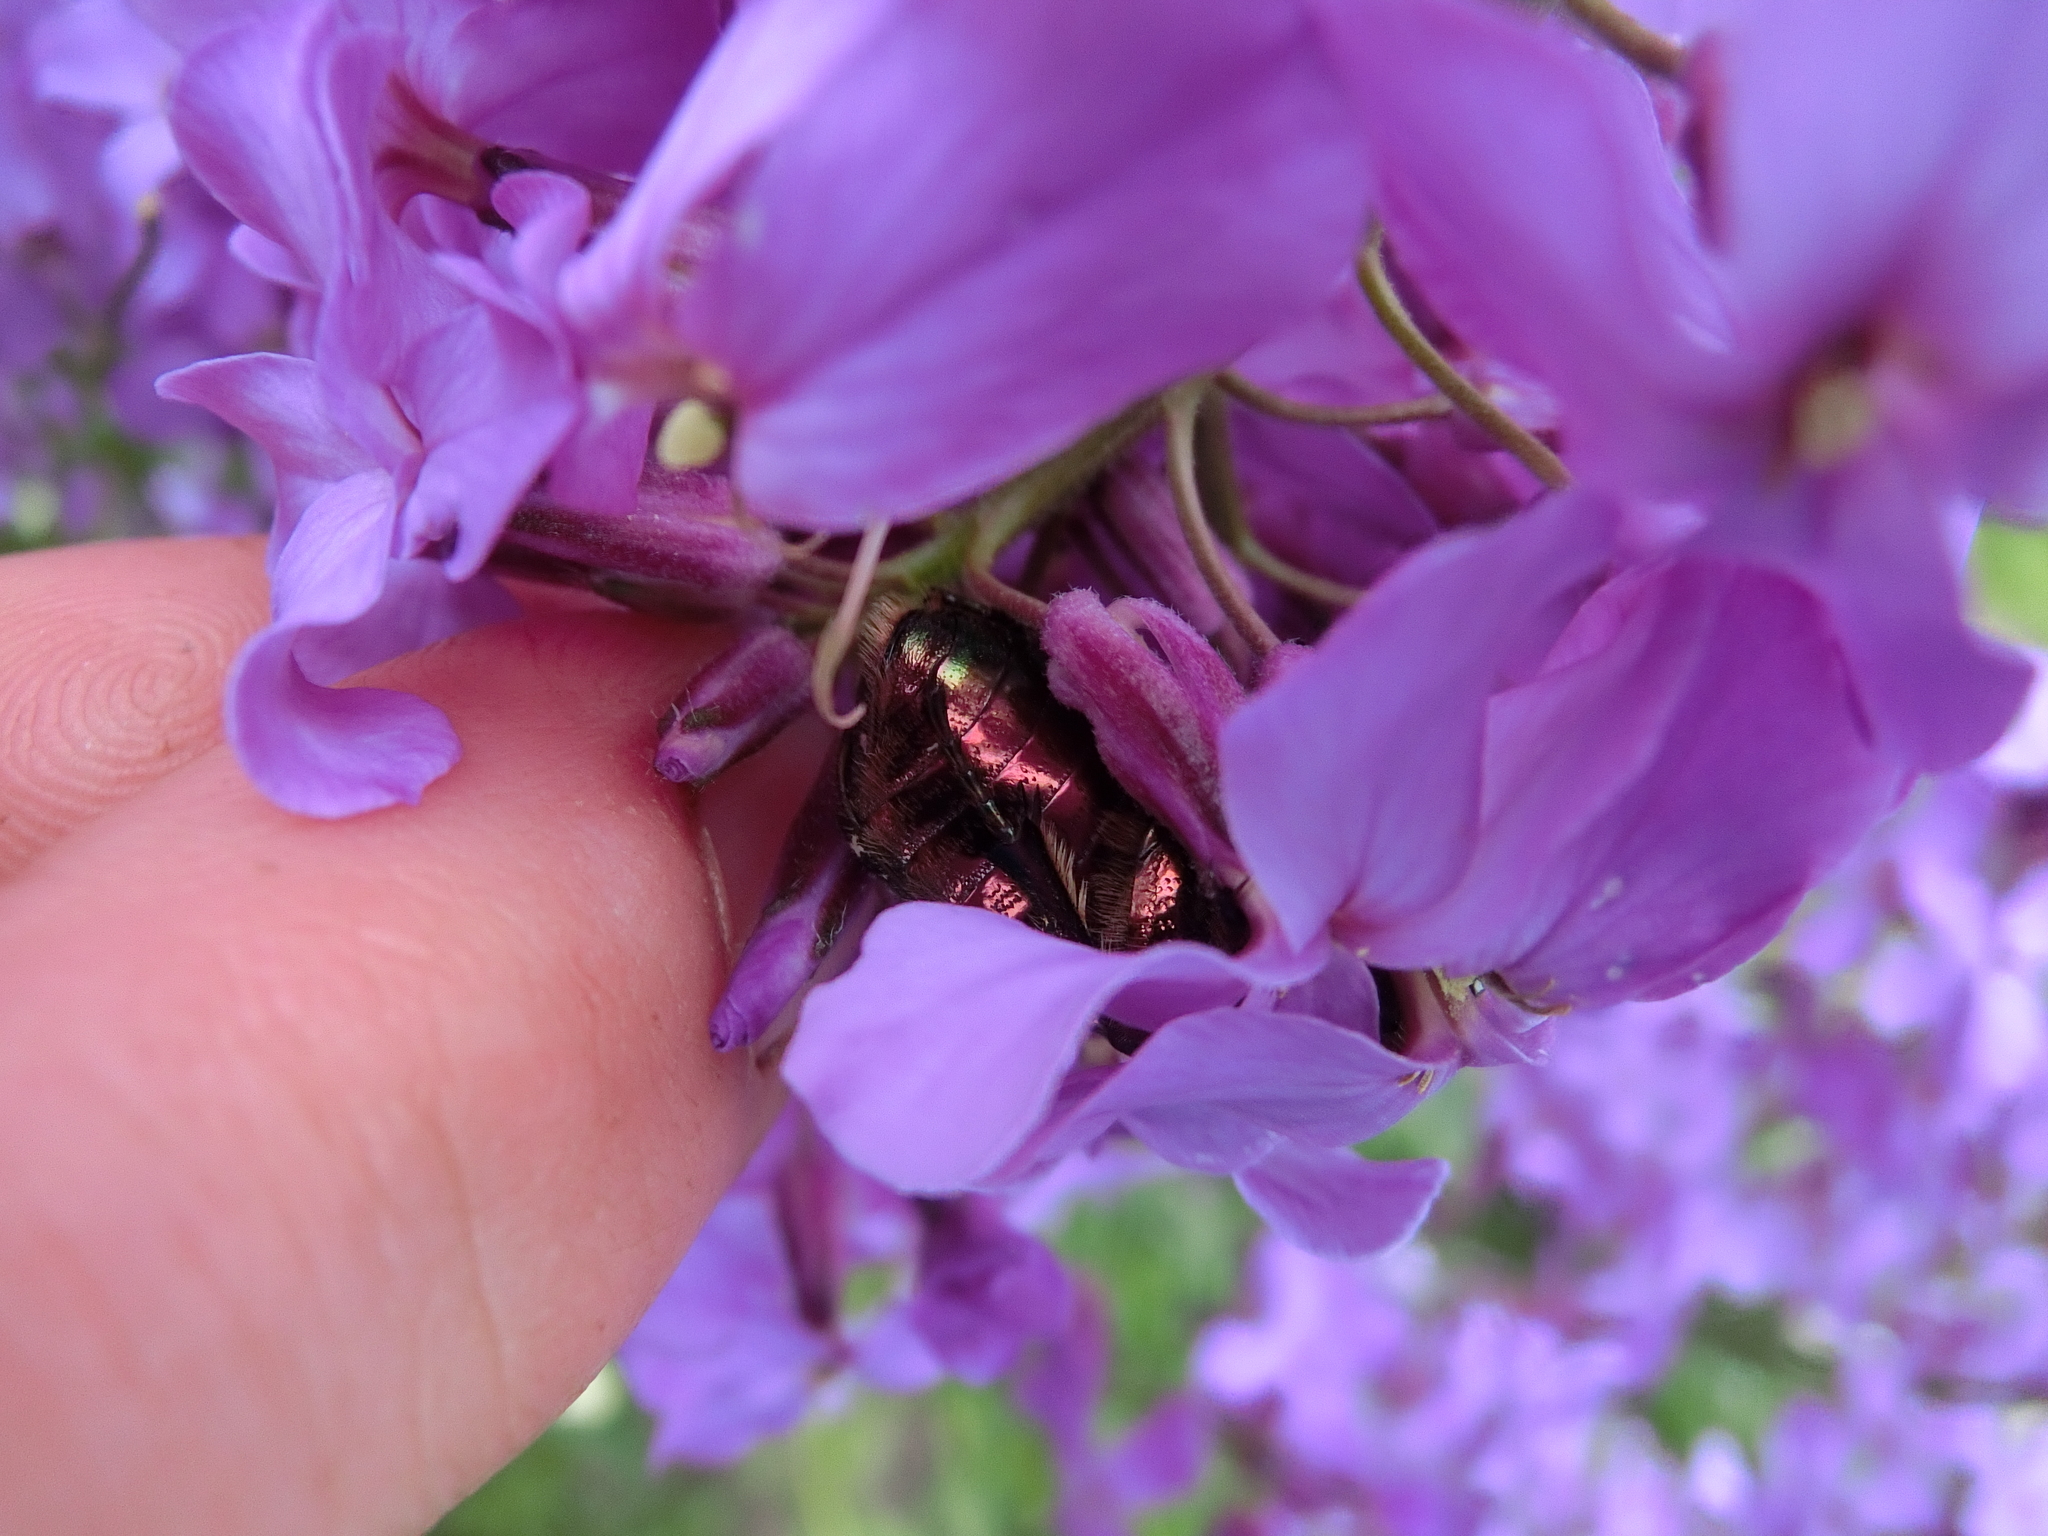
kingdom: Animalia
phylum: Arthropoda
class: Insecta
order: Coleoptera
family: Scarabaeidae
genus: Cetonia
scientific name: Cetonia aurata
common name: Rose chafer
